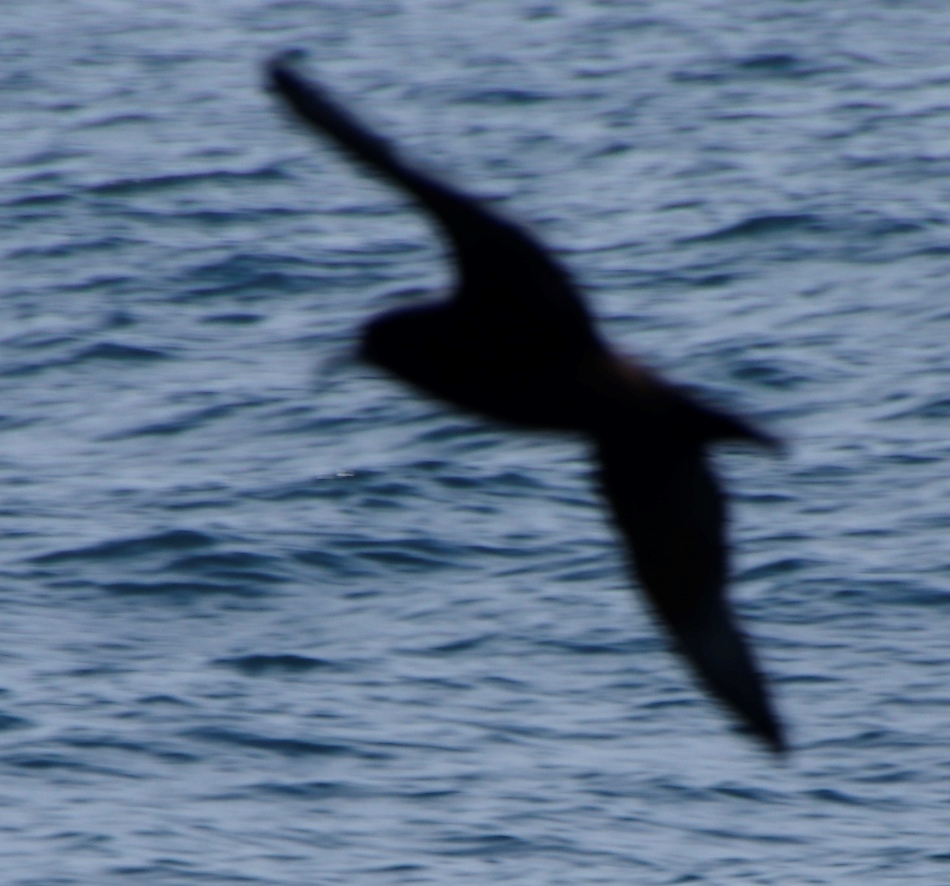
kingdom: Animalia
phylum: Chordata
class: Aves
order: Procellariiformes
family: Procellariidae
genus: Procellaria
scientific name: Procellaria aequinoctialis
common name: White-chinned petrel
